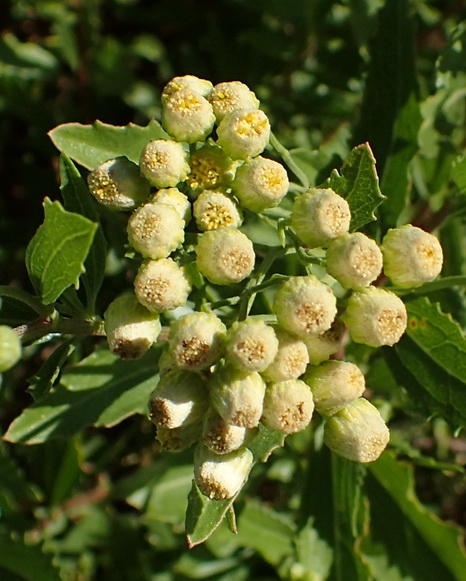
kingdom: Plantae
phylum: Tracheophyta
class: Magnoliopsida
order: Asterales
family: Asteraceae
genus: Nidorella
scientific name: Nidorella ivifolia
